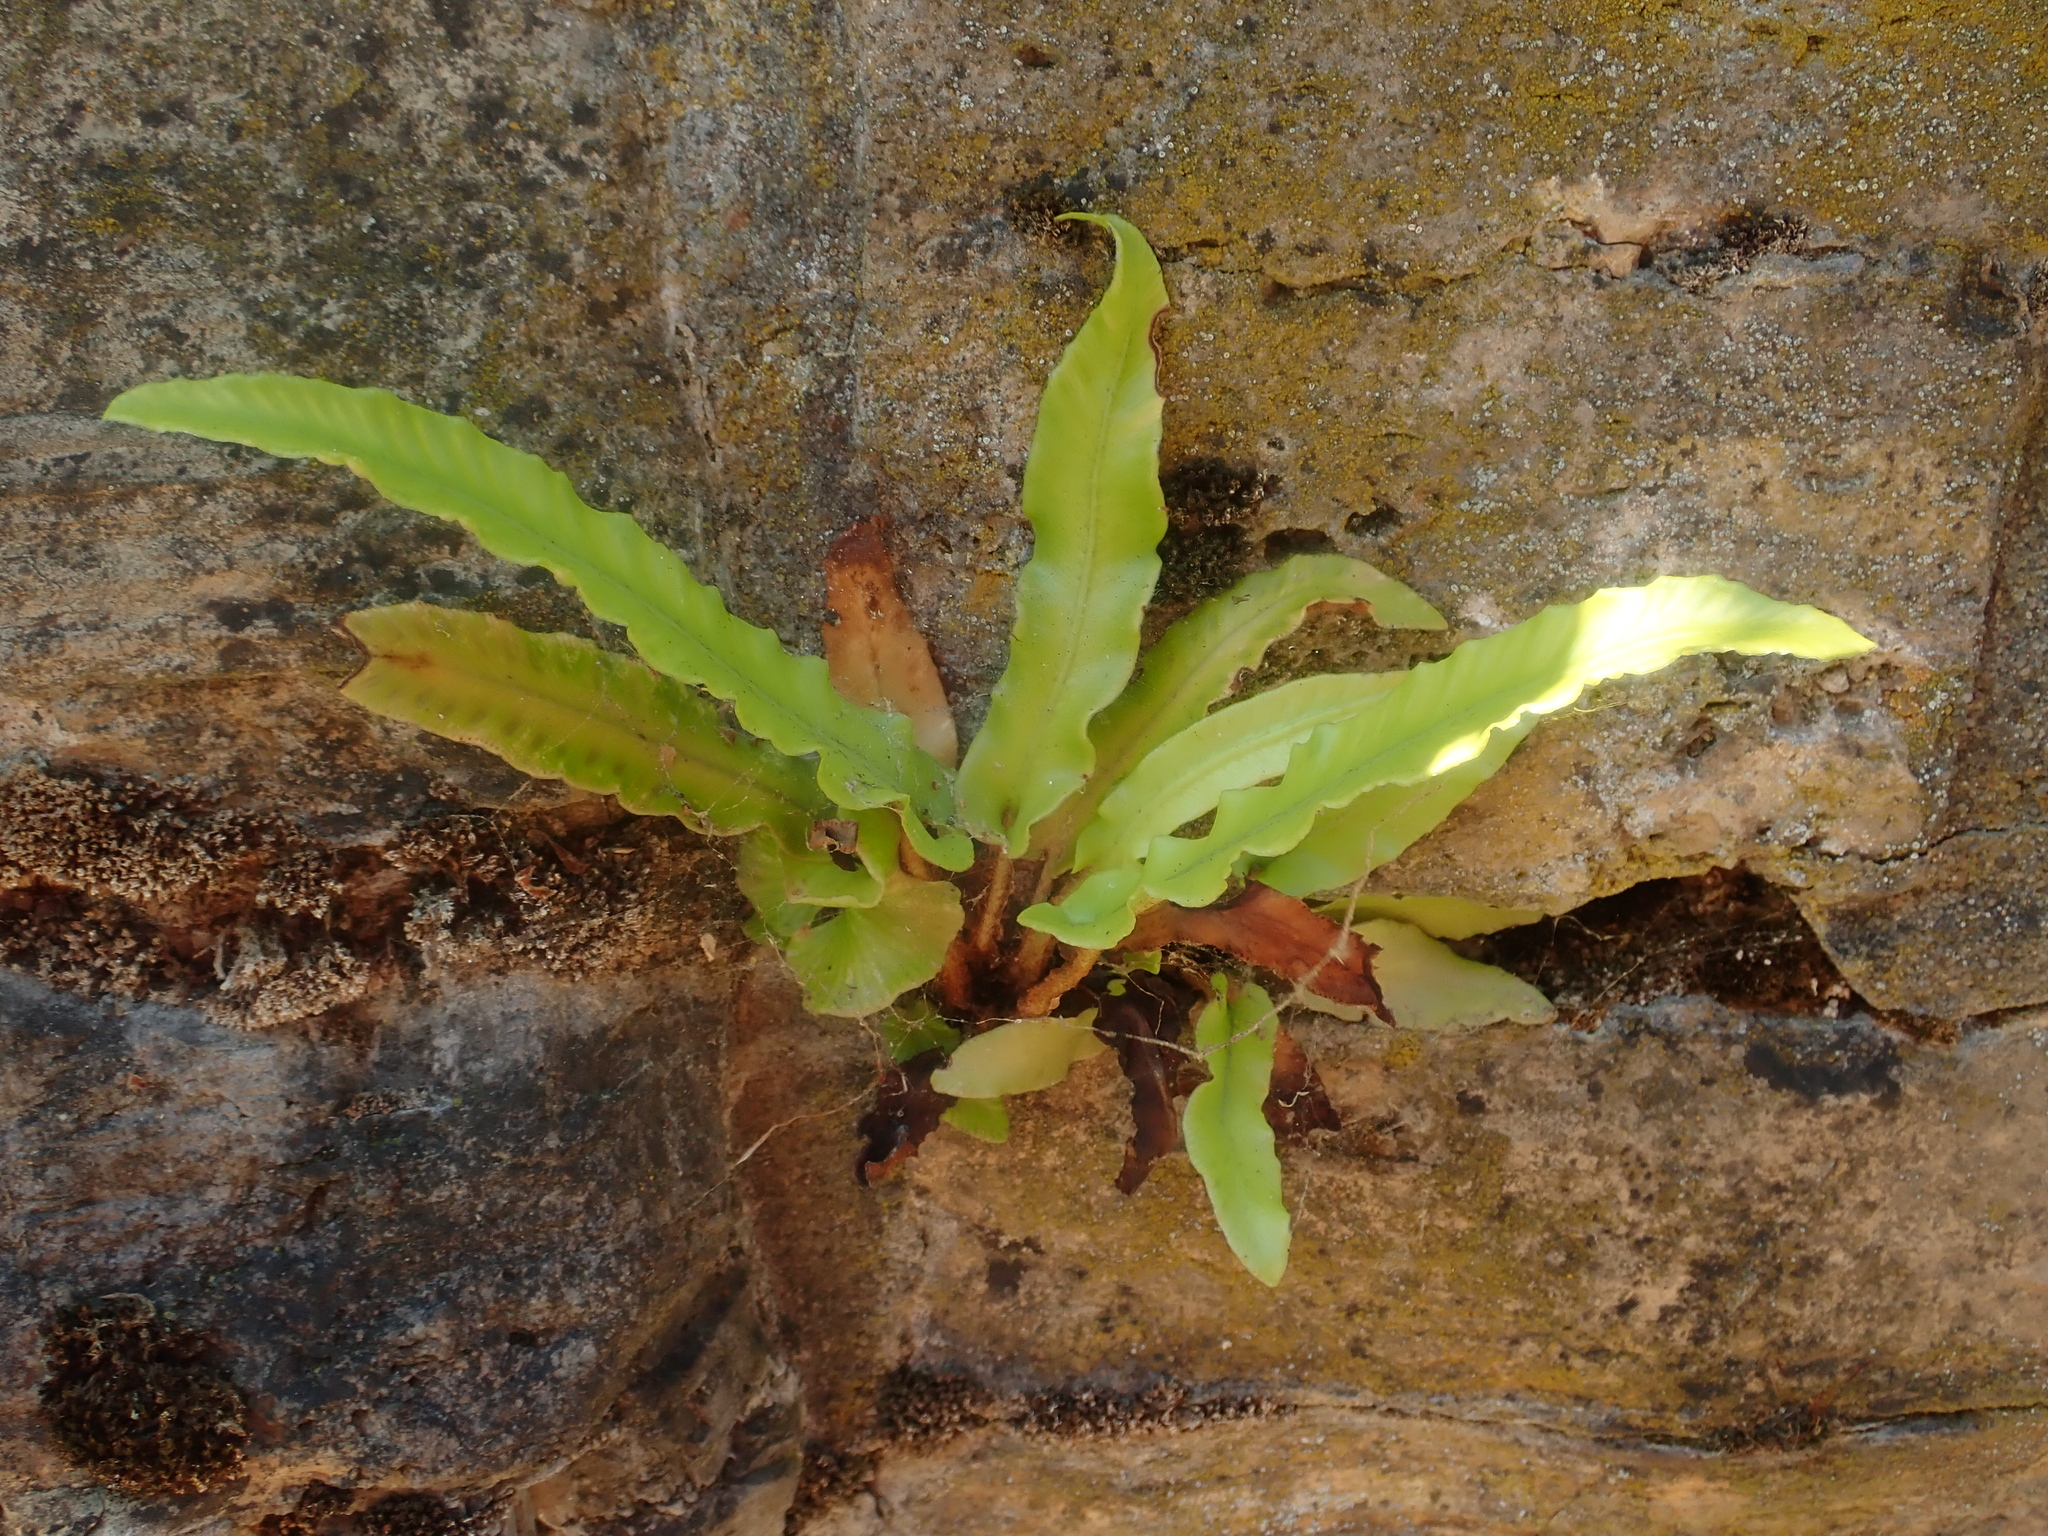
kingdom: Plantae
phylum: Tracheophyta
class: Polypodiopsida
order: Polypodiales
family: Aspleniaceae
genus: Asplenium
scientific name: Asplenium scolopendrium
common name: Hart's-tongue fern
